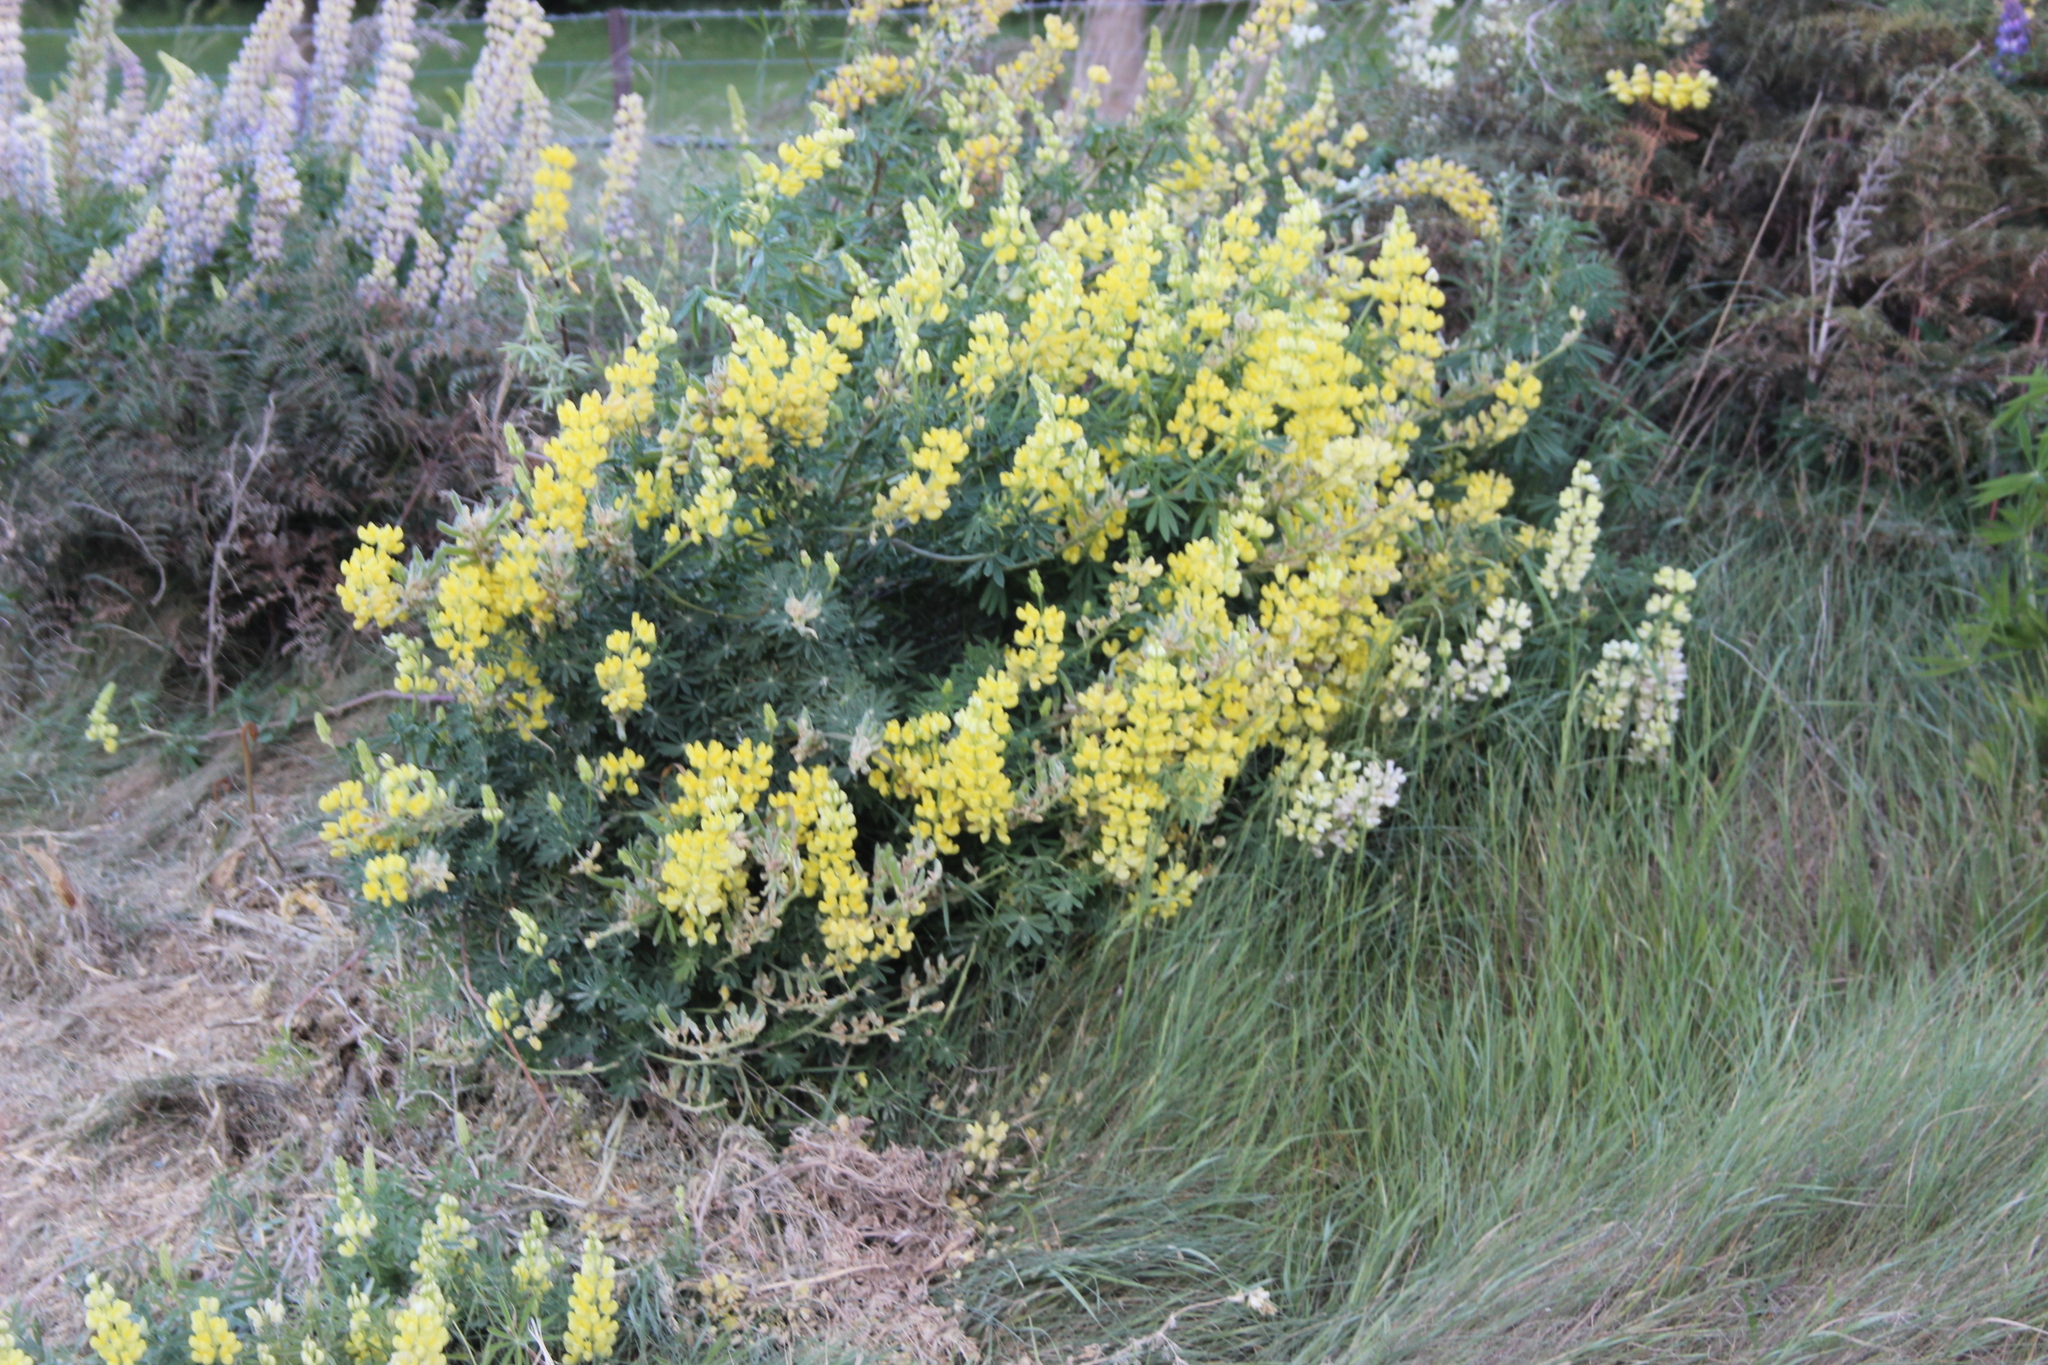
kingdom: Plantae
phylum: Tracheophyta
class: Magnoliopsida
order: Fabales
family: Fabaceae
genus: Lupinus
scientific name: Lupinus arboreus
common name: Yellow bush lupine
